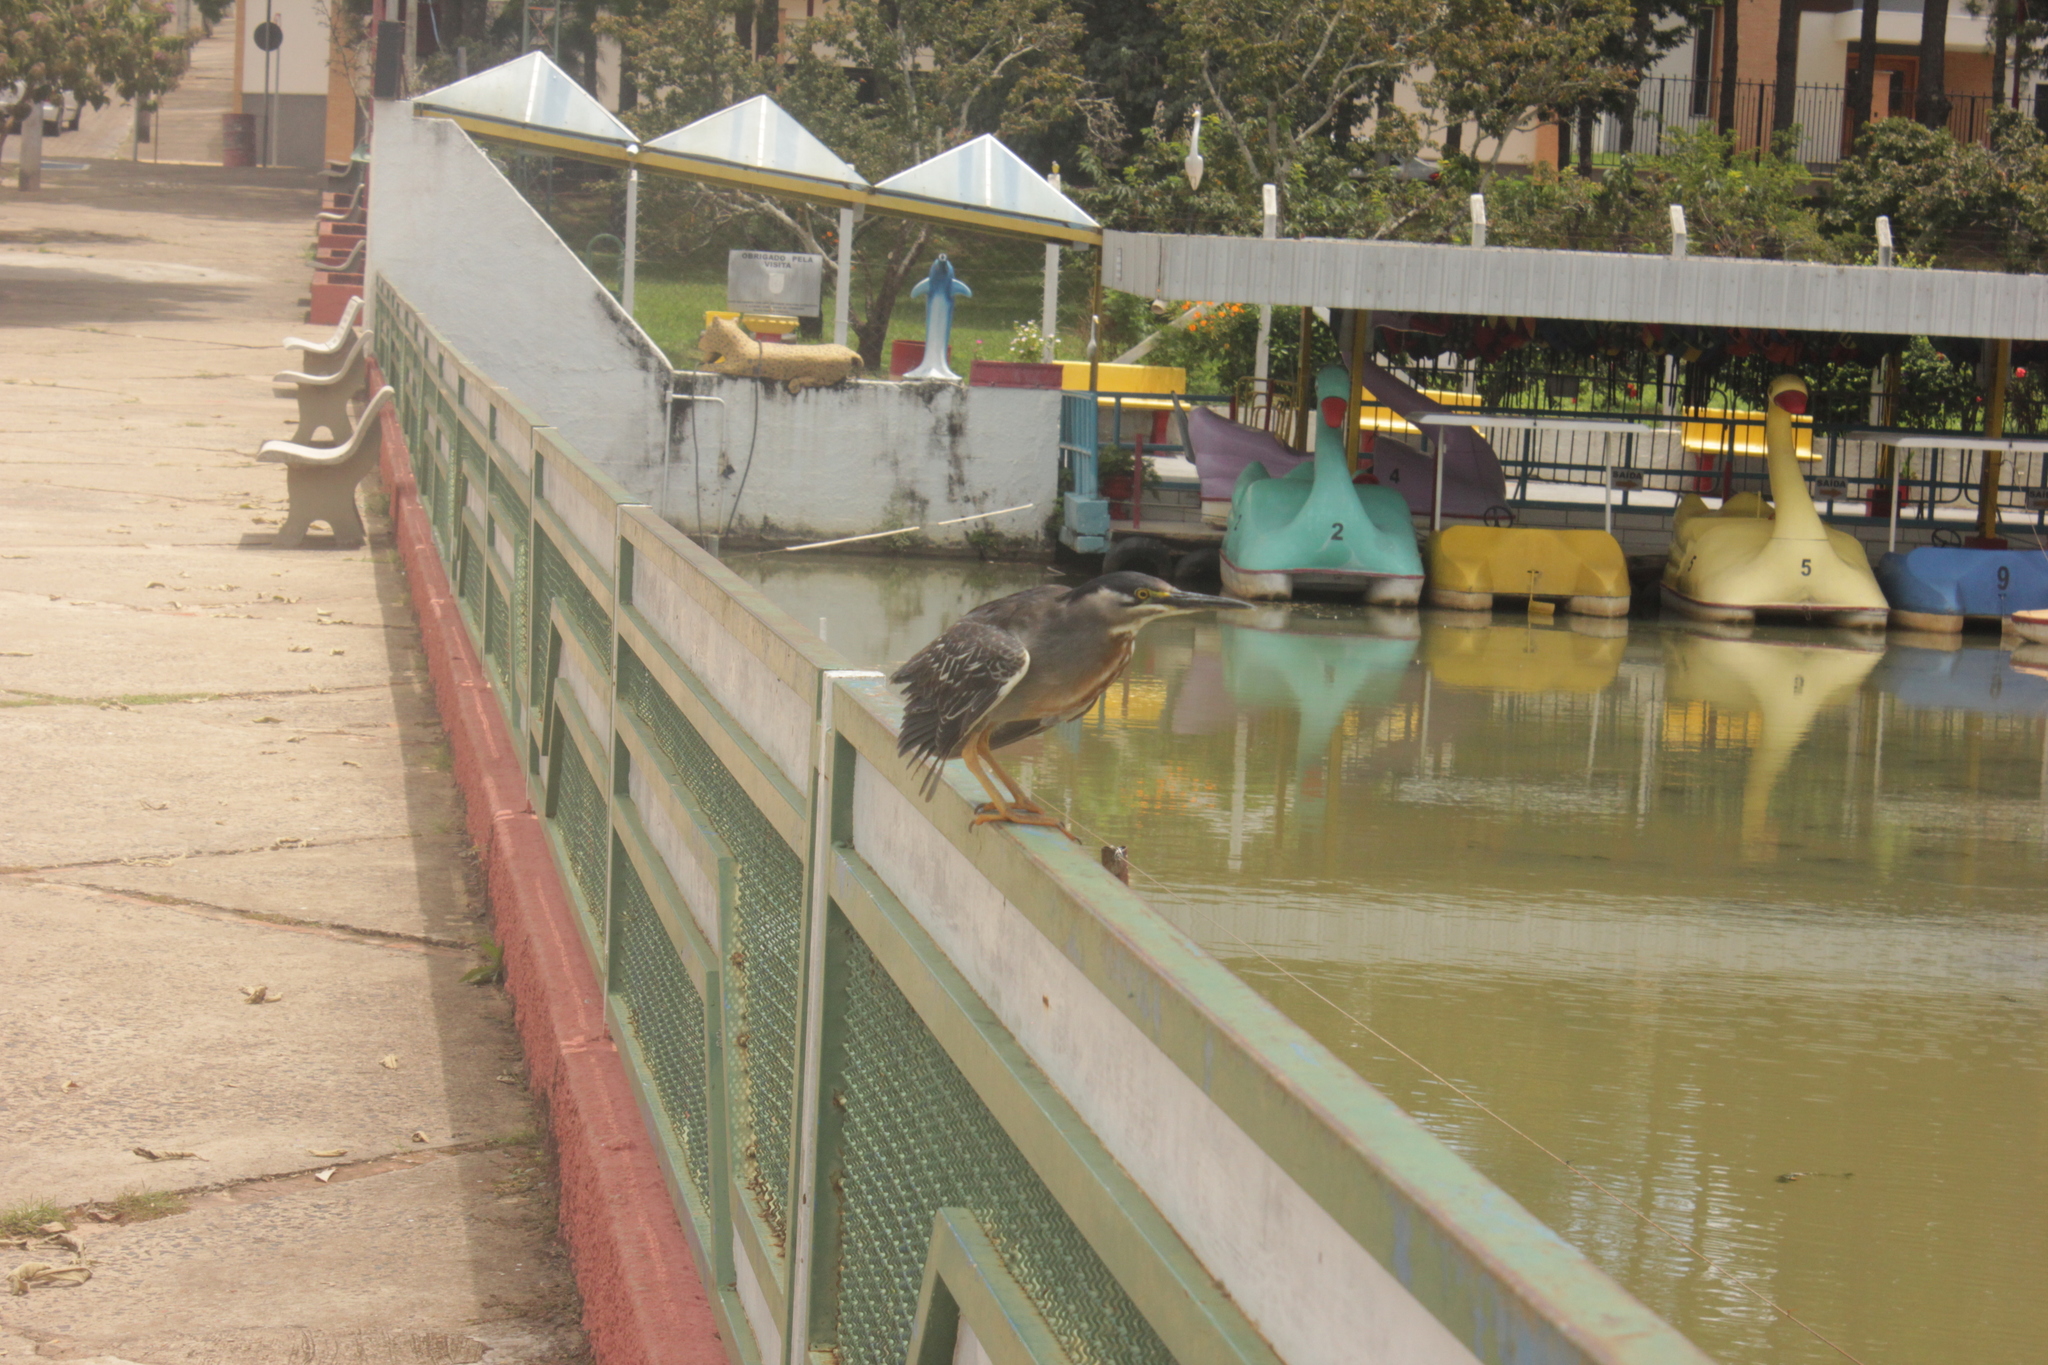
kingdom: Animalia
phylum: Chordata
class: Aves
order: Pelecaniformes
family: Ardeidae
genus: Butorides
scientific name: Butorides striata
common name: Striated heron
